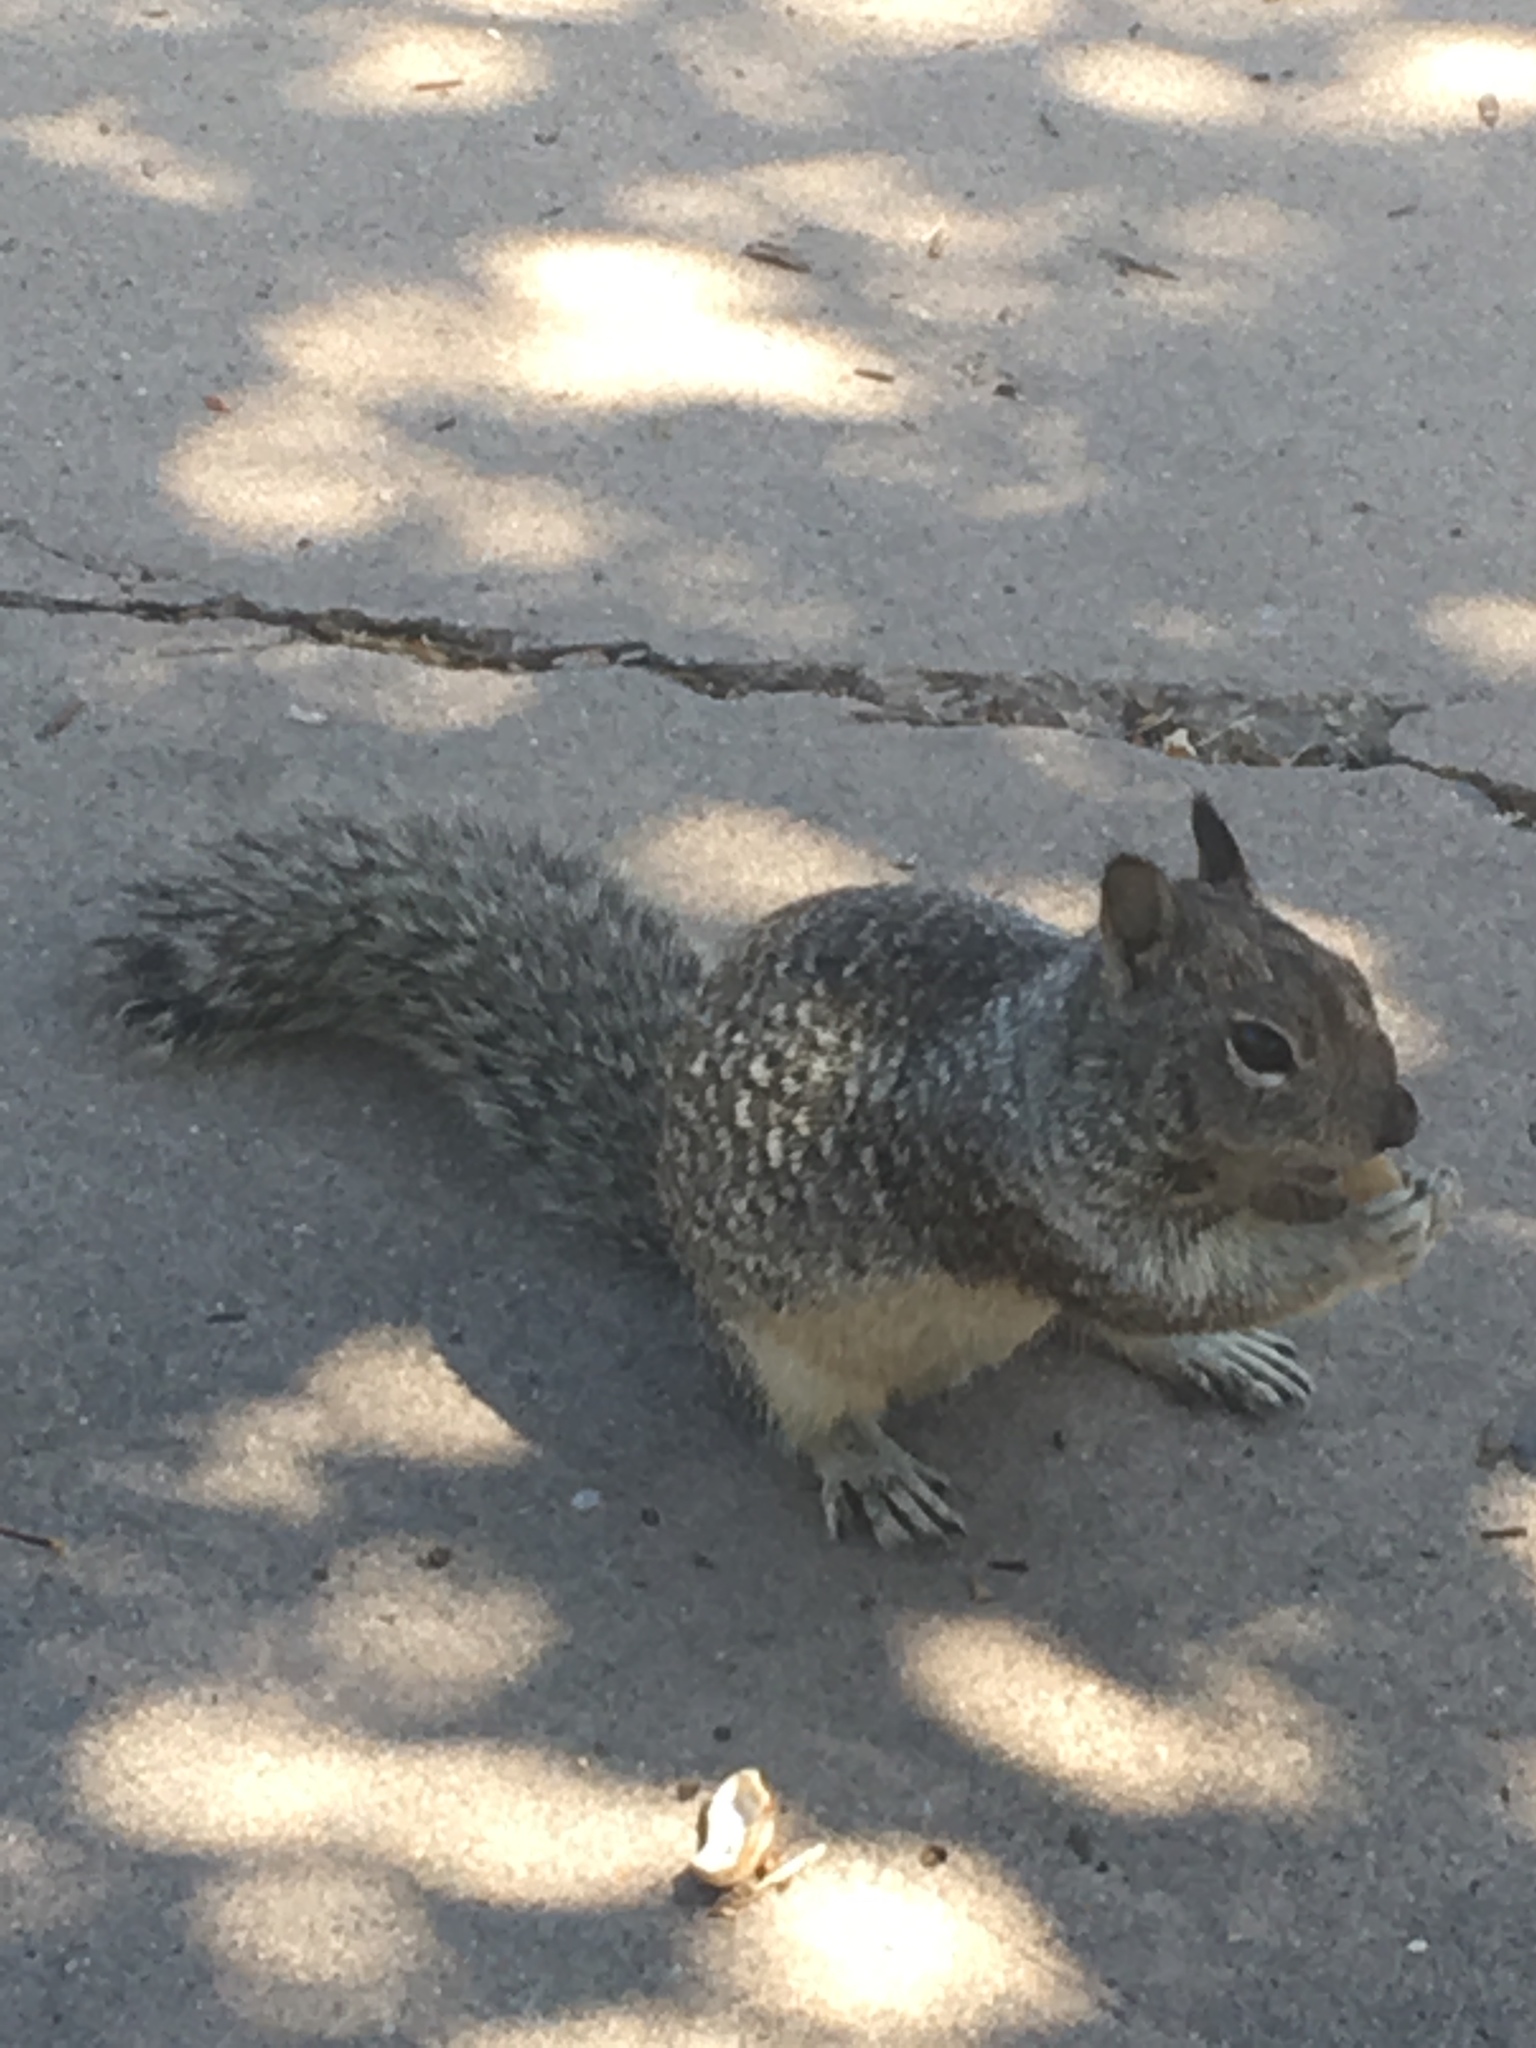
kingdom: Animalia
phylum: Chordata
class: Mammalia
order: Rodentia
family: Sciuridae
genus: Otospermophilus
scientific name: Otospermophilus beecheyi
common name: California ground squirrel
